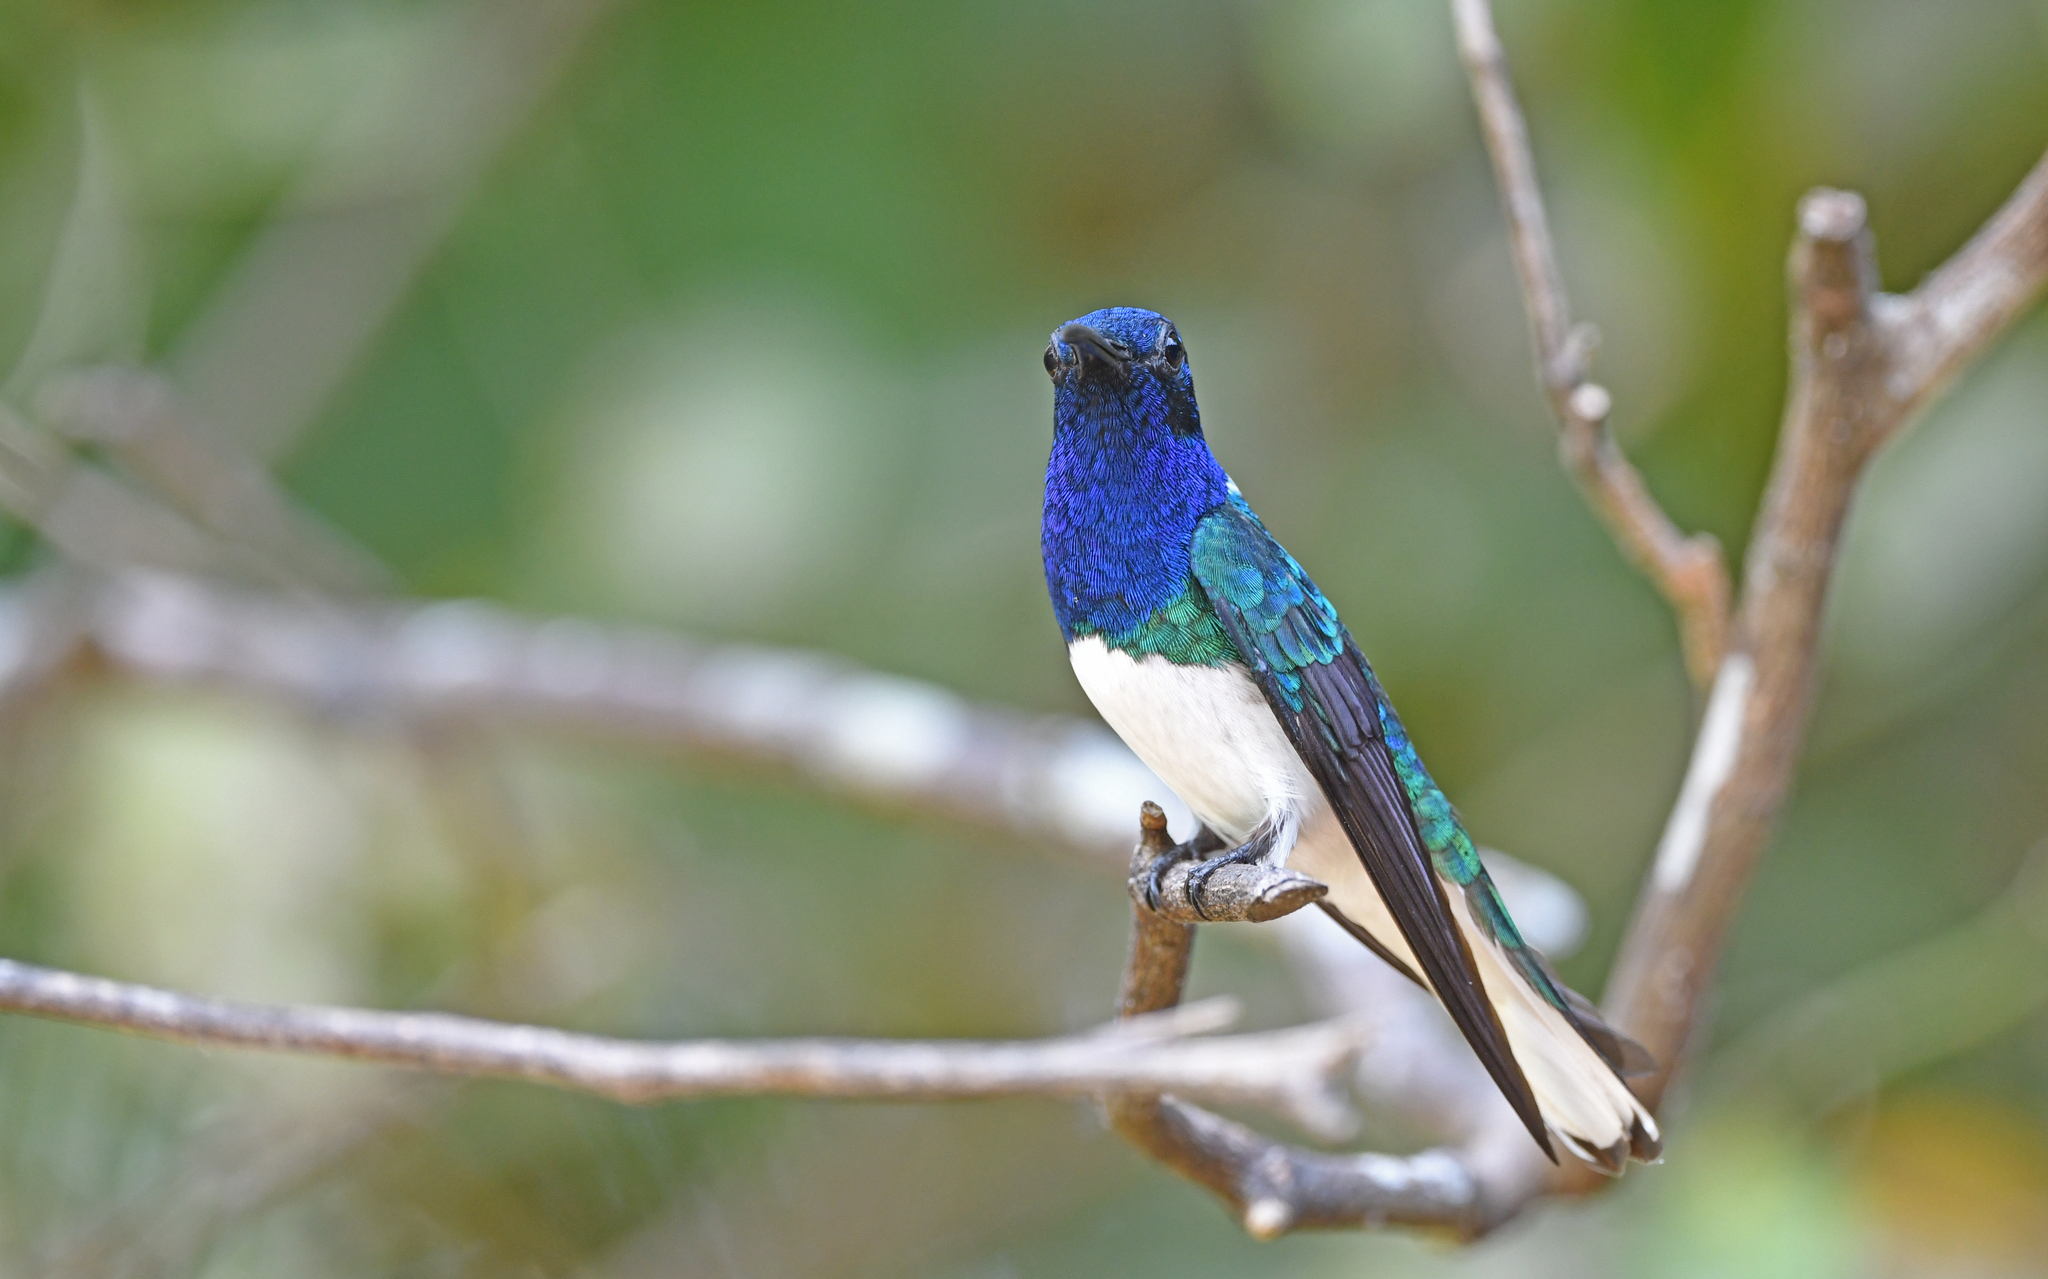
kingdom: Animalia
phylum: Chordata
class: Aves
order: Apodiformes
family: Trochilidae
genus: Florisuga
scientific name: Florisuga mellivora
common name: White-necked jacobin
